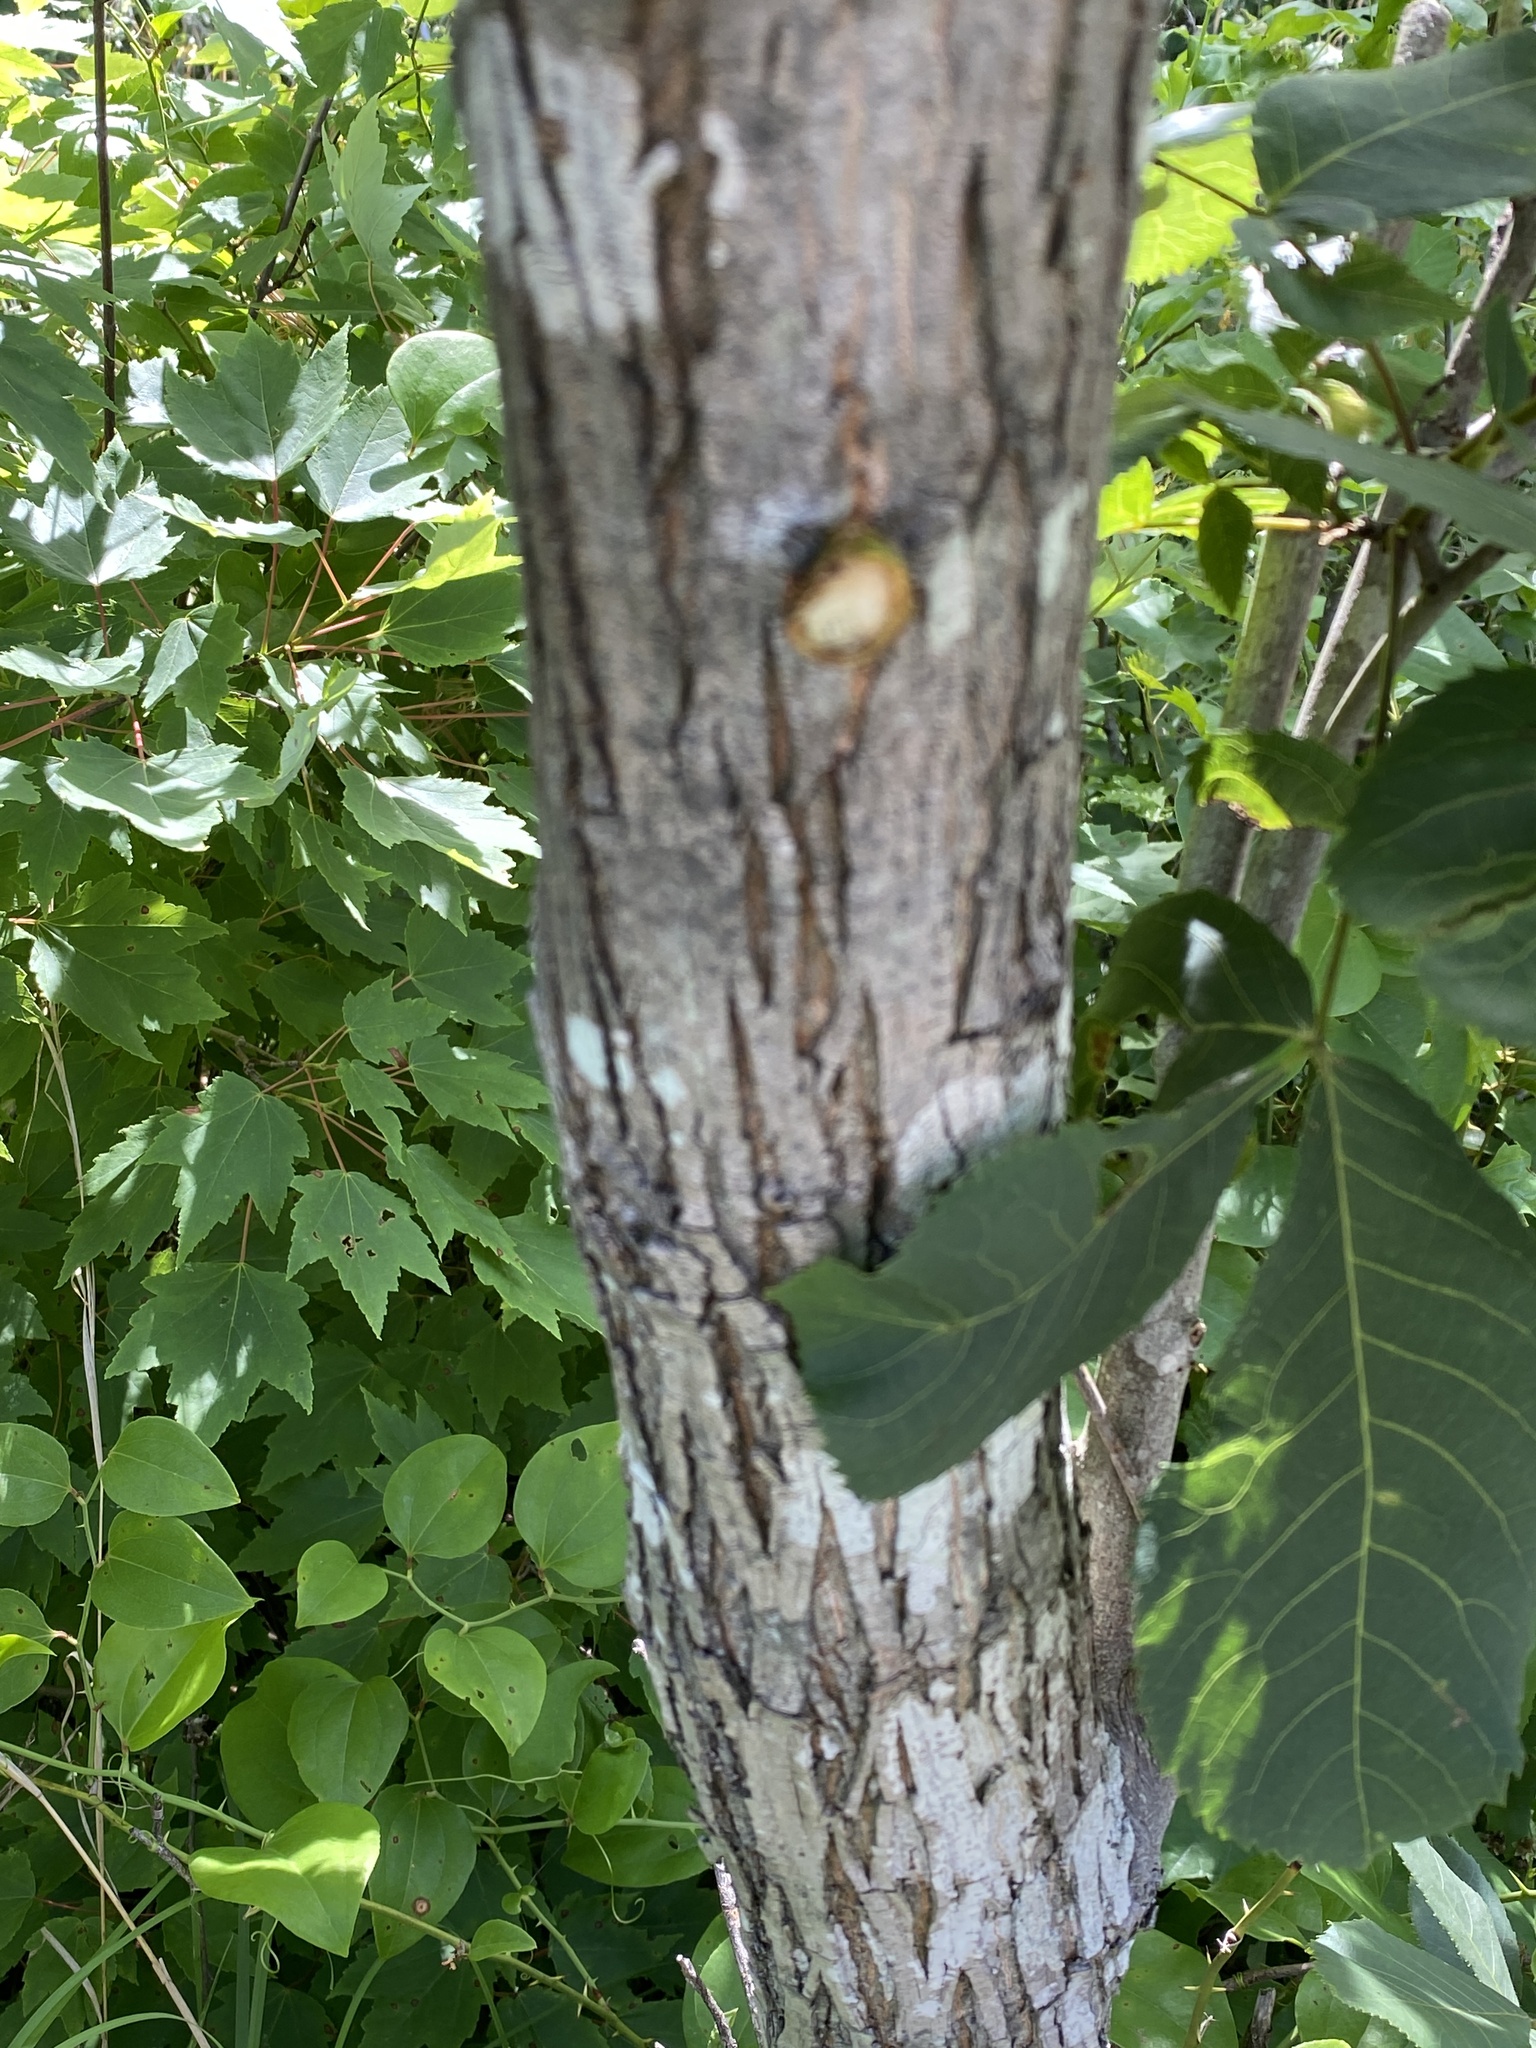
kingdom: Plantae
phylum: Tracheophyta
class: Magnoliopsida
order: Fagales
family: Juglandaceae
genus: Carya
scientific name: Carya glabra
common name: Pignut hickory
